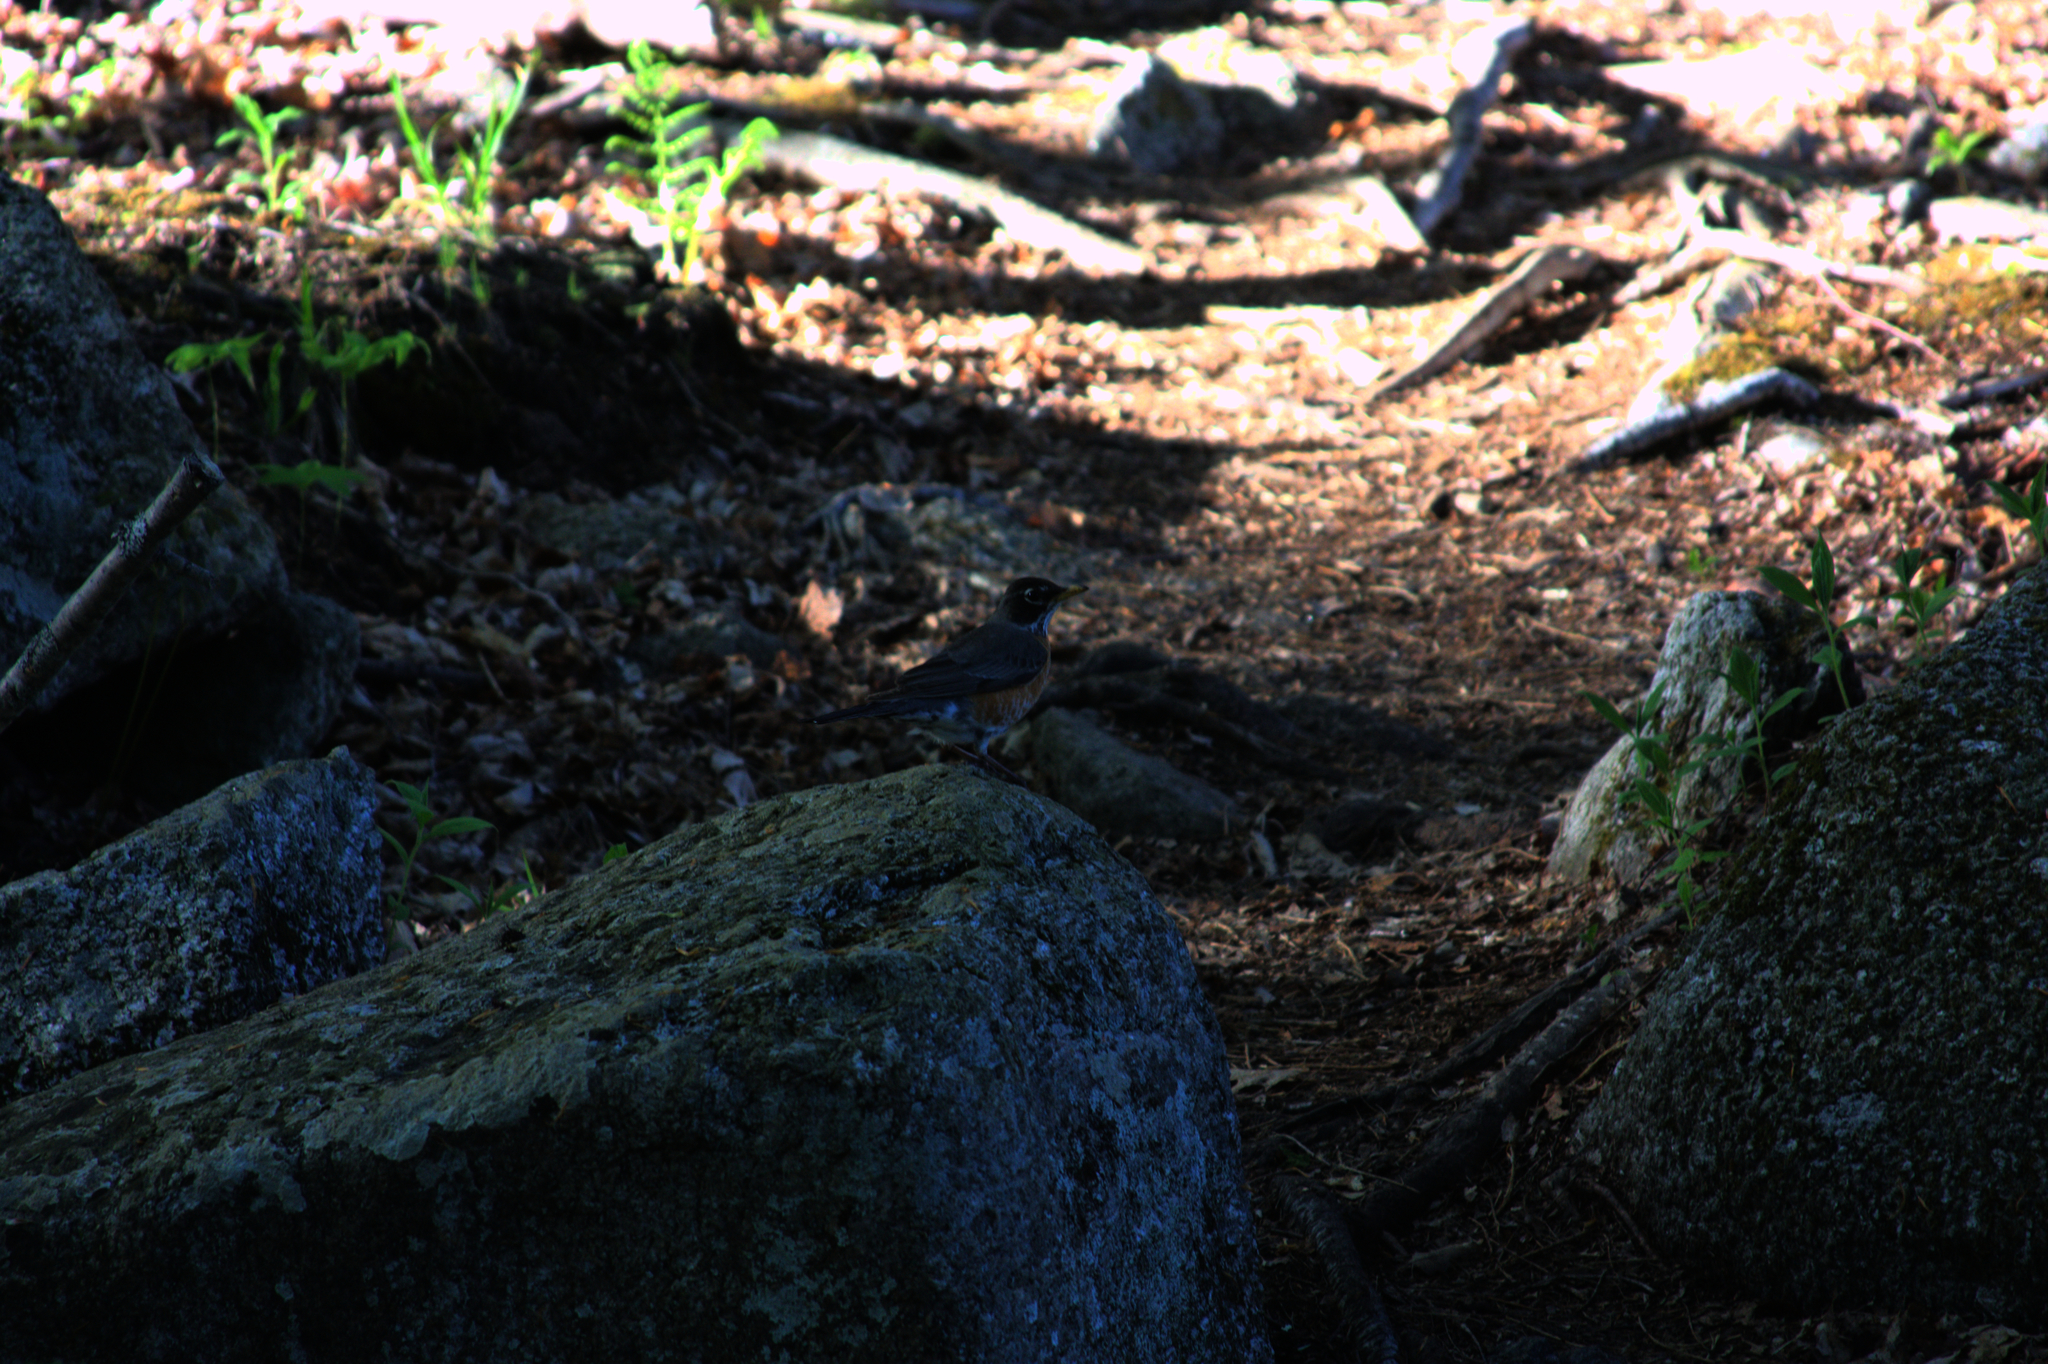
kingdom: Animalia
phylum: Chordata
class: Aves
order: Passeriformes
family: Turdidae
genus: Turdus
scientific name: Turdus migratorius
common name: American robin
